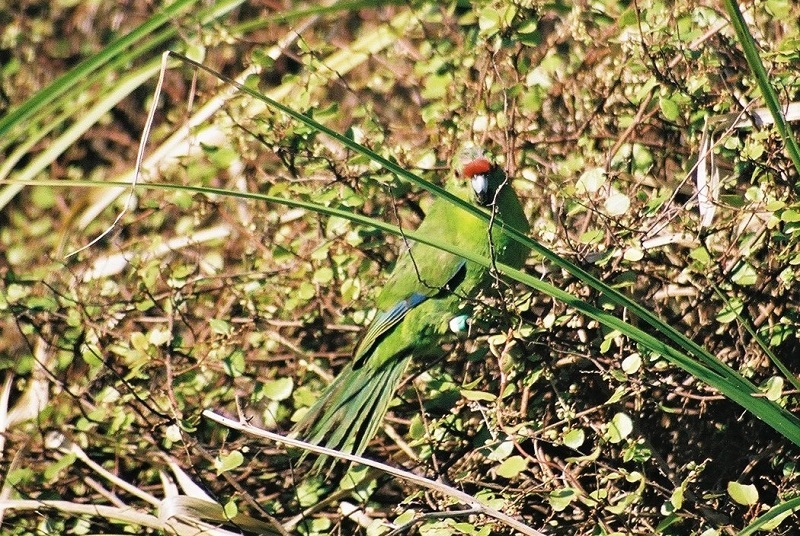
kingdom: Animalia
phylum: Chordata
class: Aves
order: Psittaciformes
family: Psittacidae
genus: Cyanoramphus
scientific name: Cyanoramphus novaezelandiae
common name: Red-fronted parakeet
